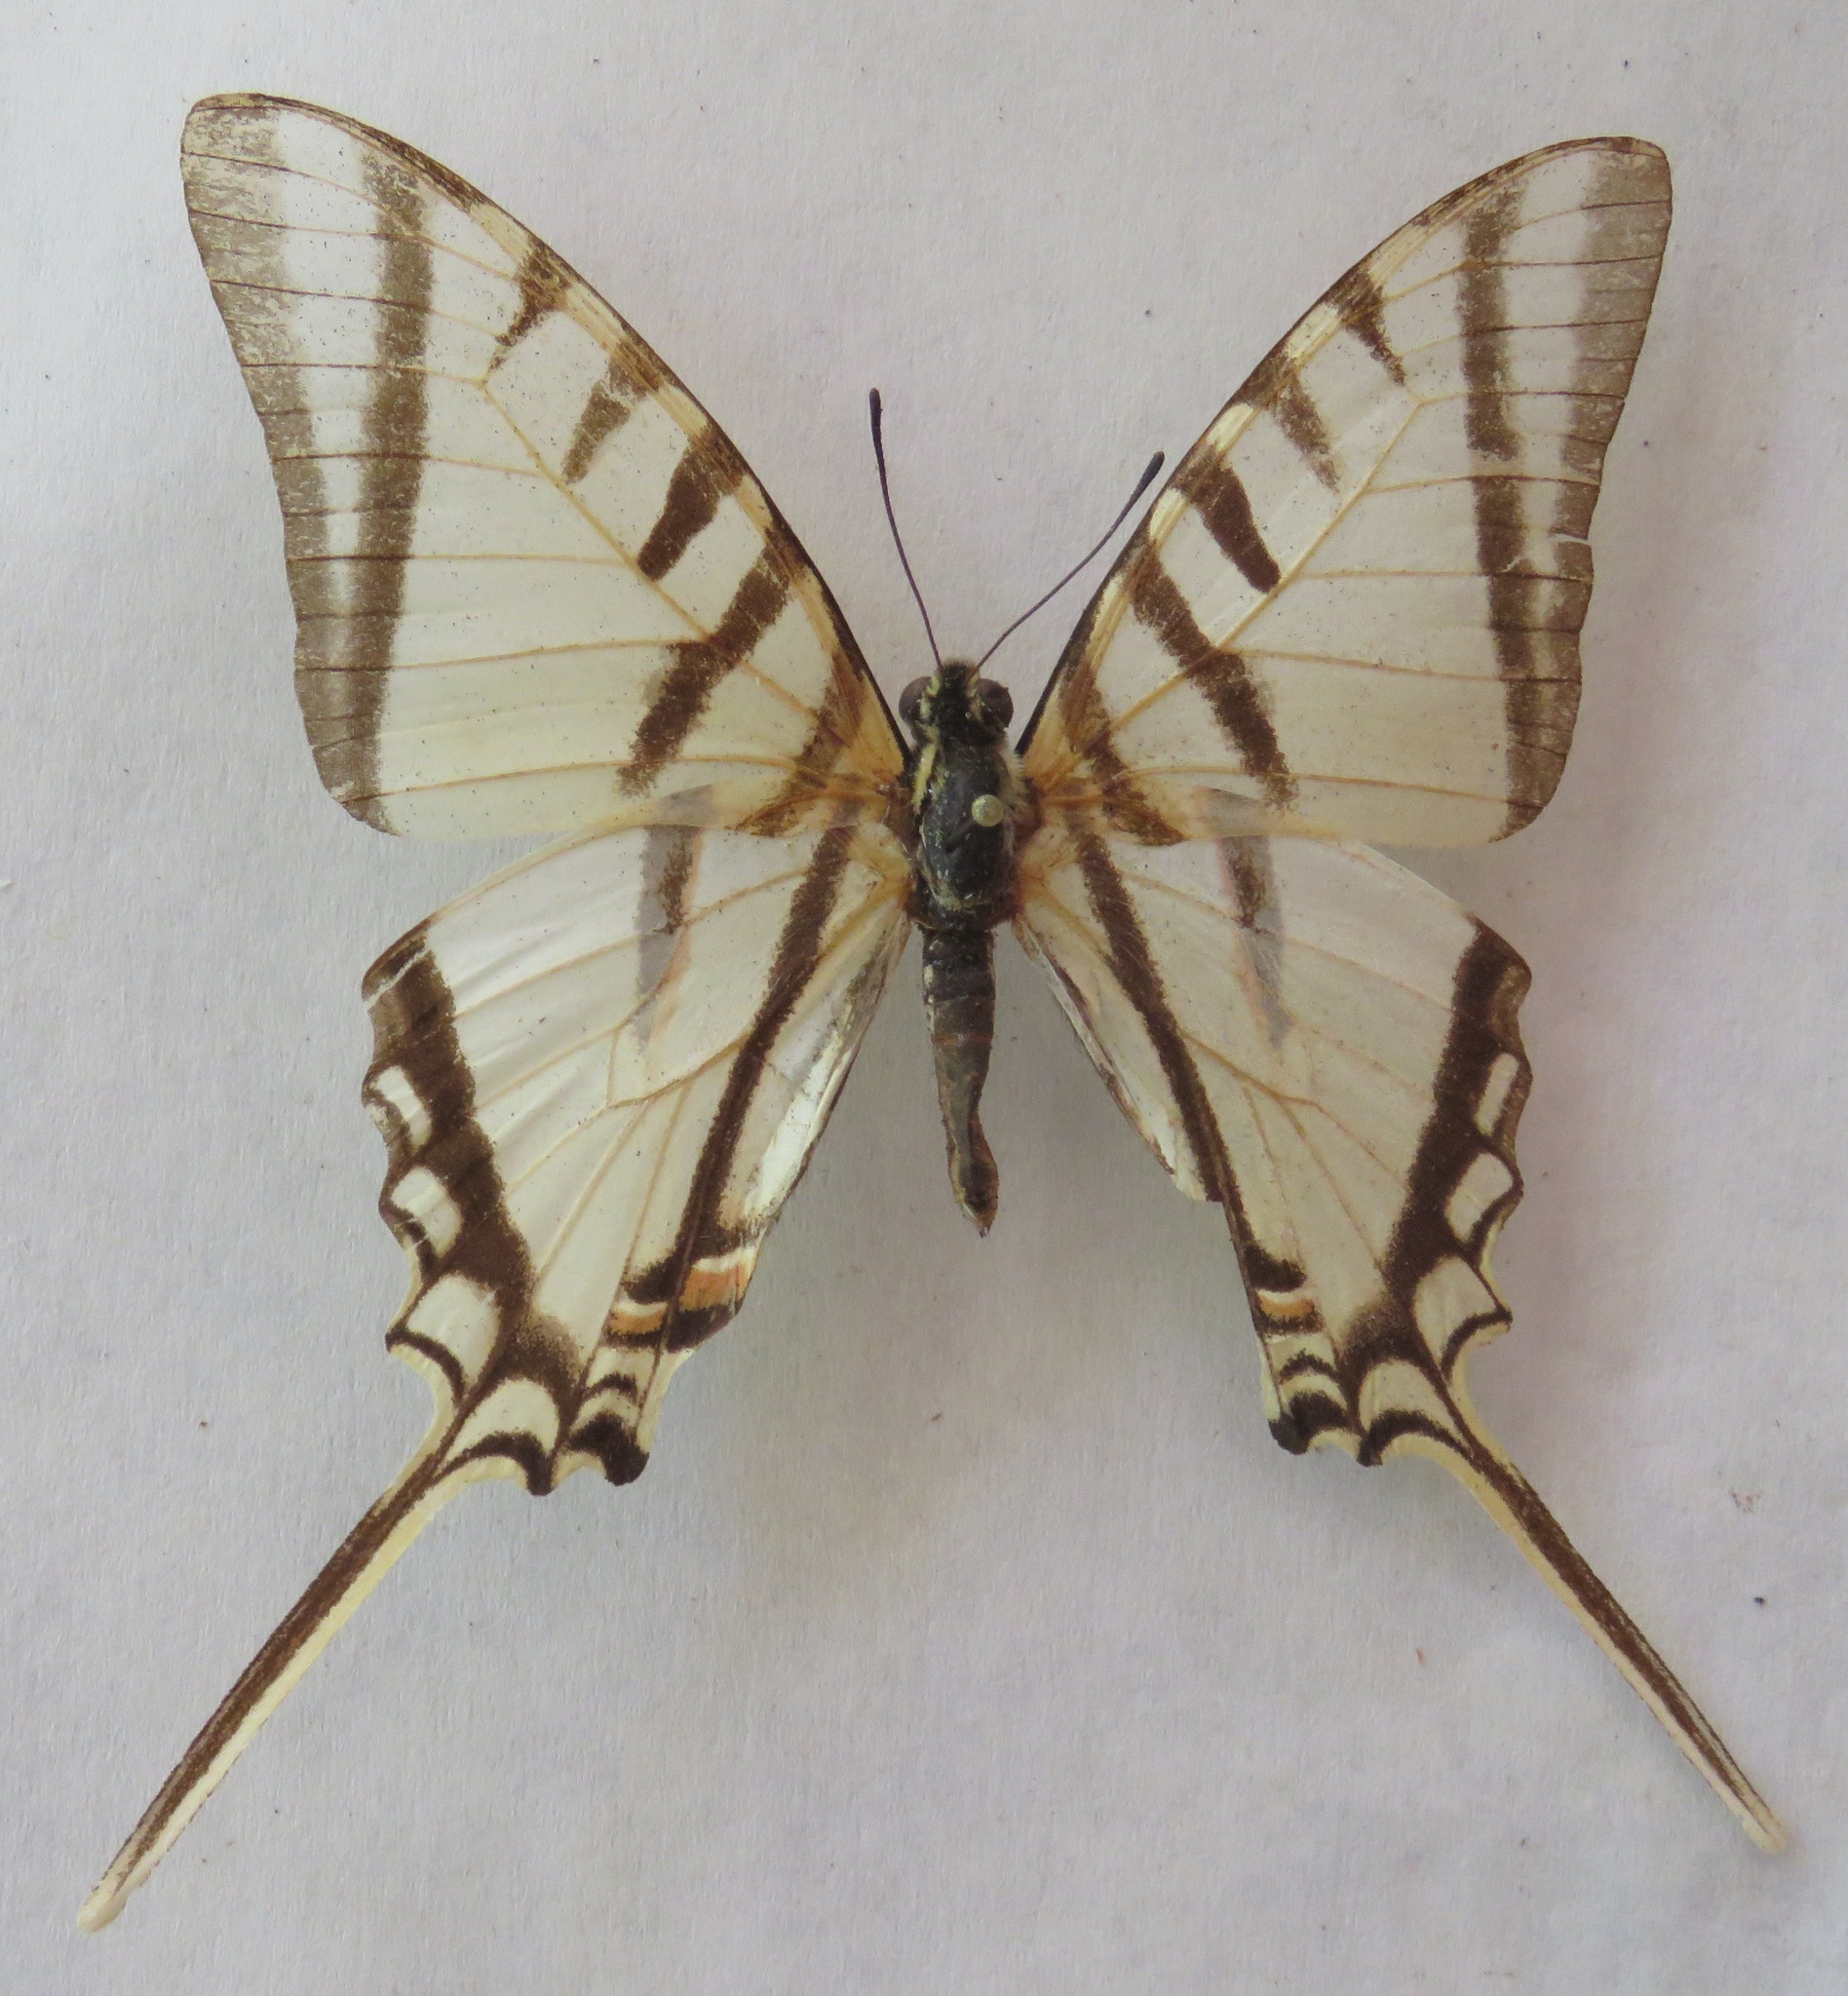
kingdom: Animalia
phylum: Arthropoda
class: Insecta
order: Lepidoptera
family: Papilionidae
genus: Eurytides
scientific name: Eurytides
